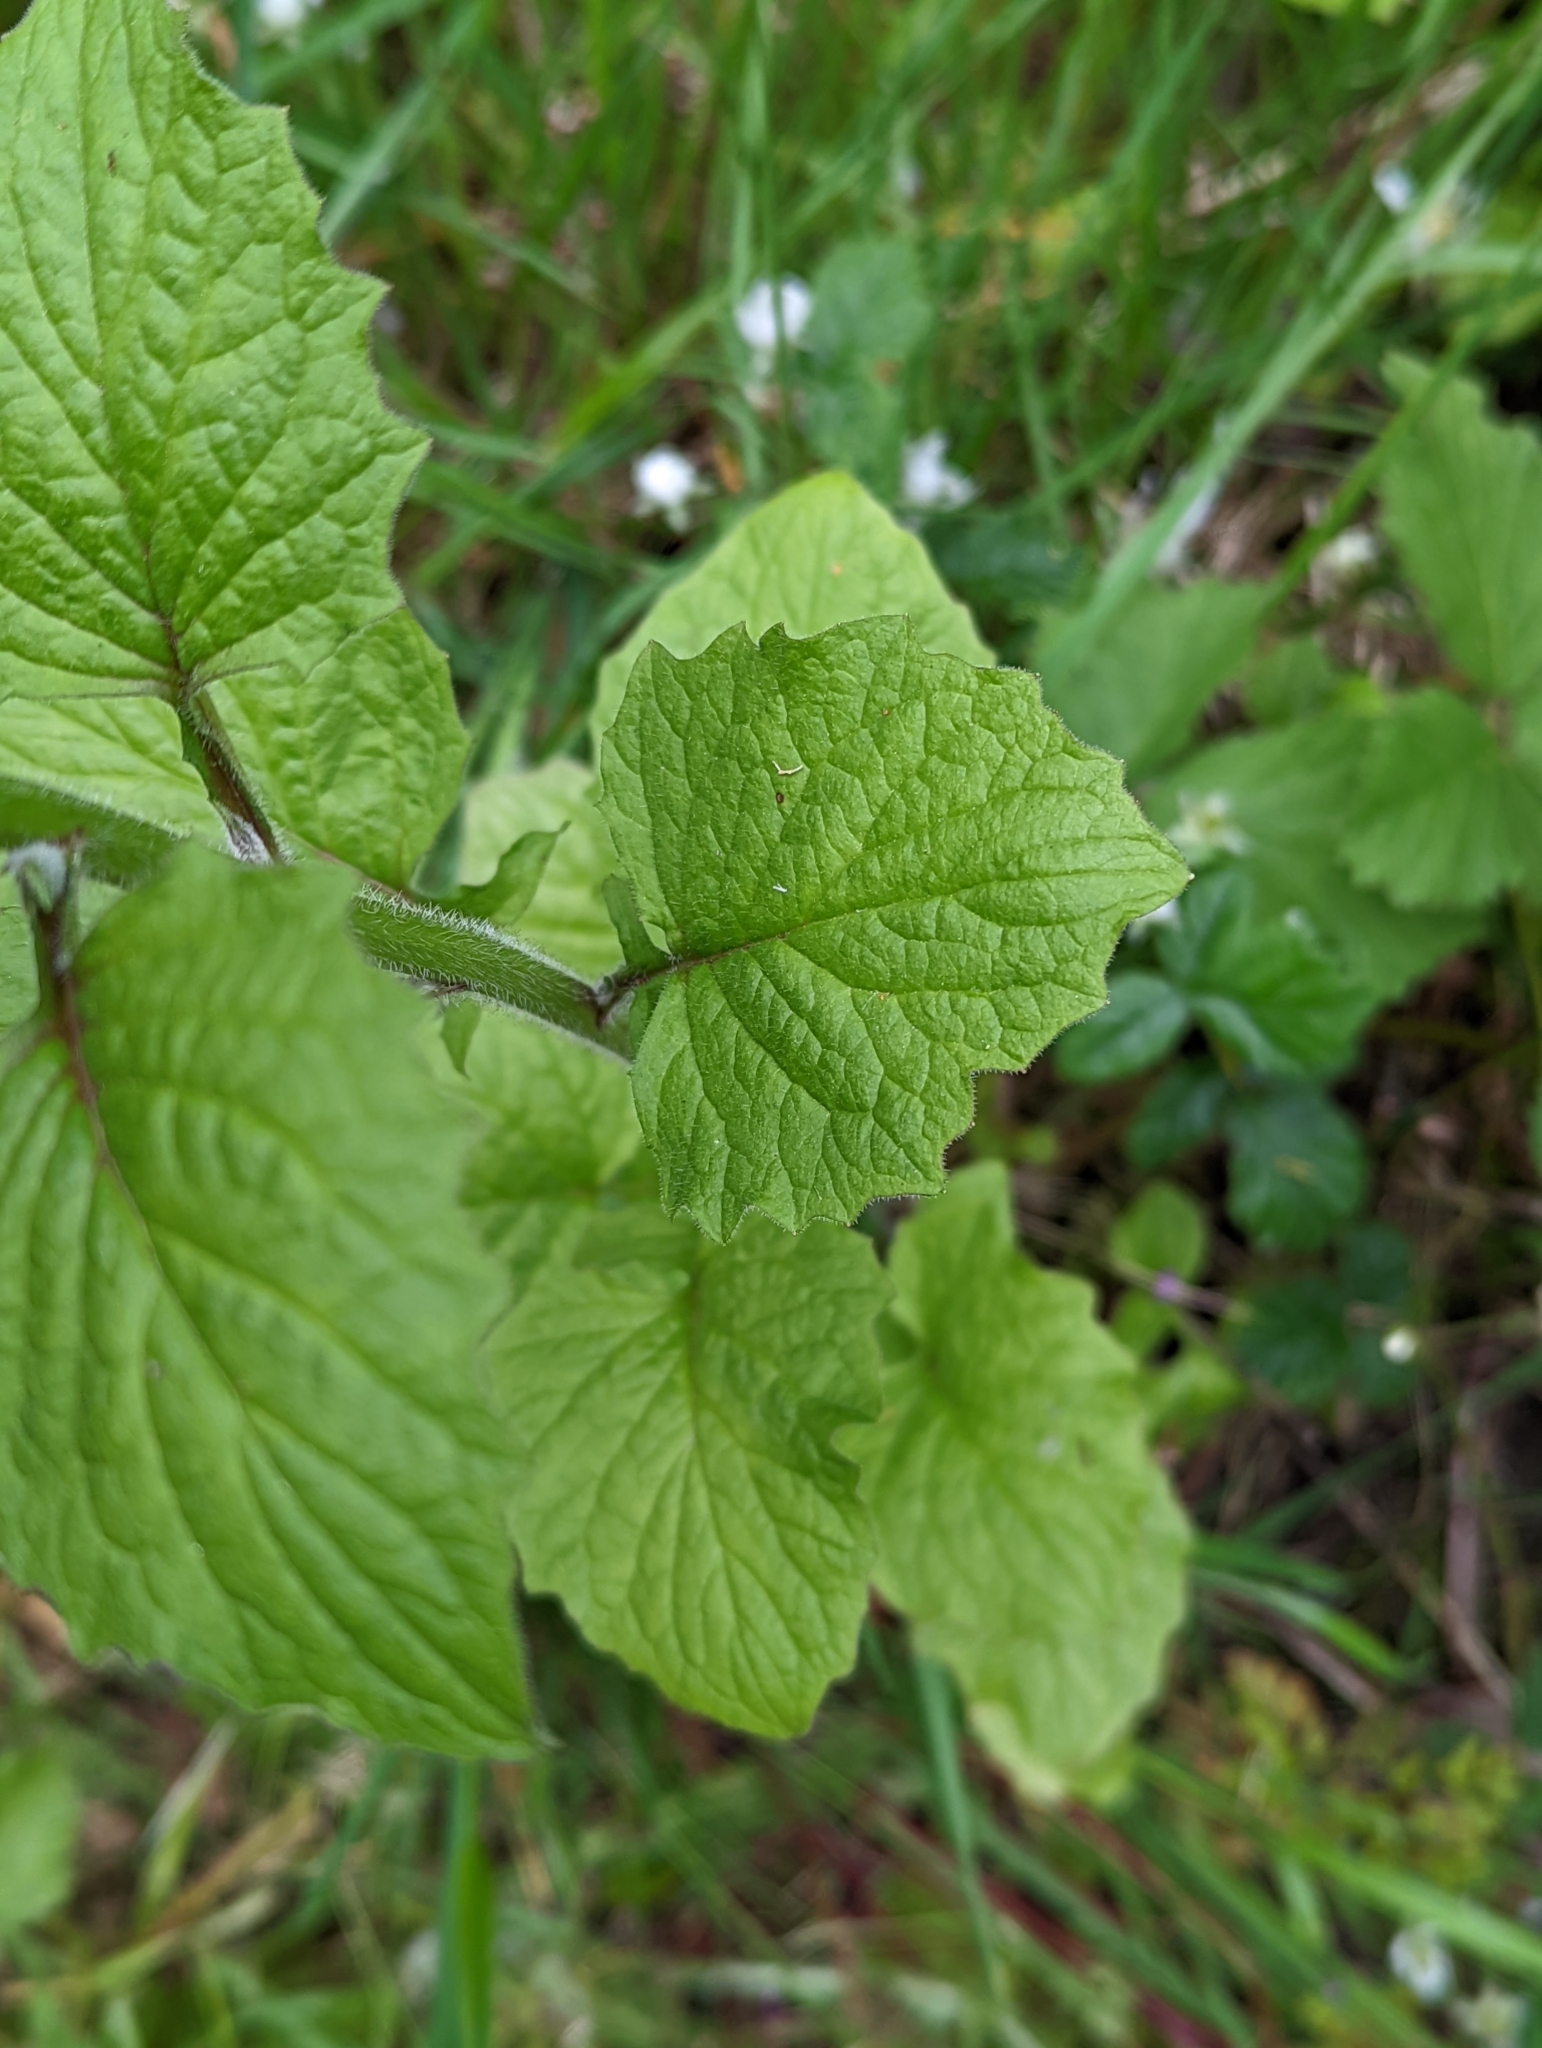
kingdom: Plantae
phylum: Tracheophyta
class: Magnoliopsida
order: Asterales
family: Asteraceae
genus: Lapsana
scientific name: Lapsana communis
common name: Nipplewort
